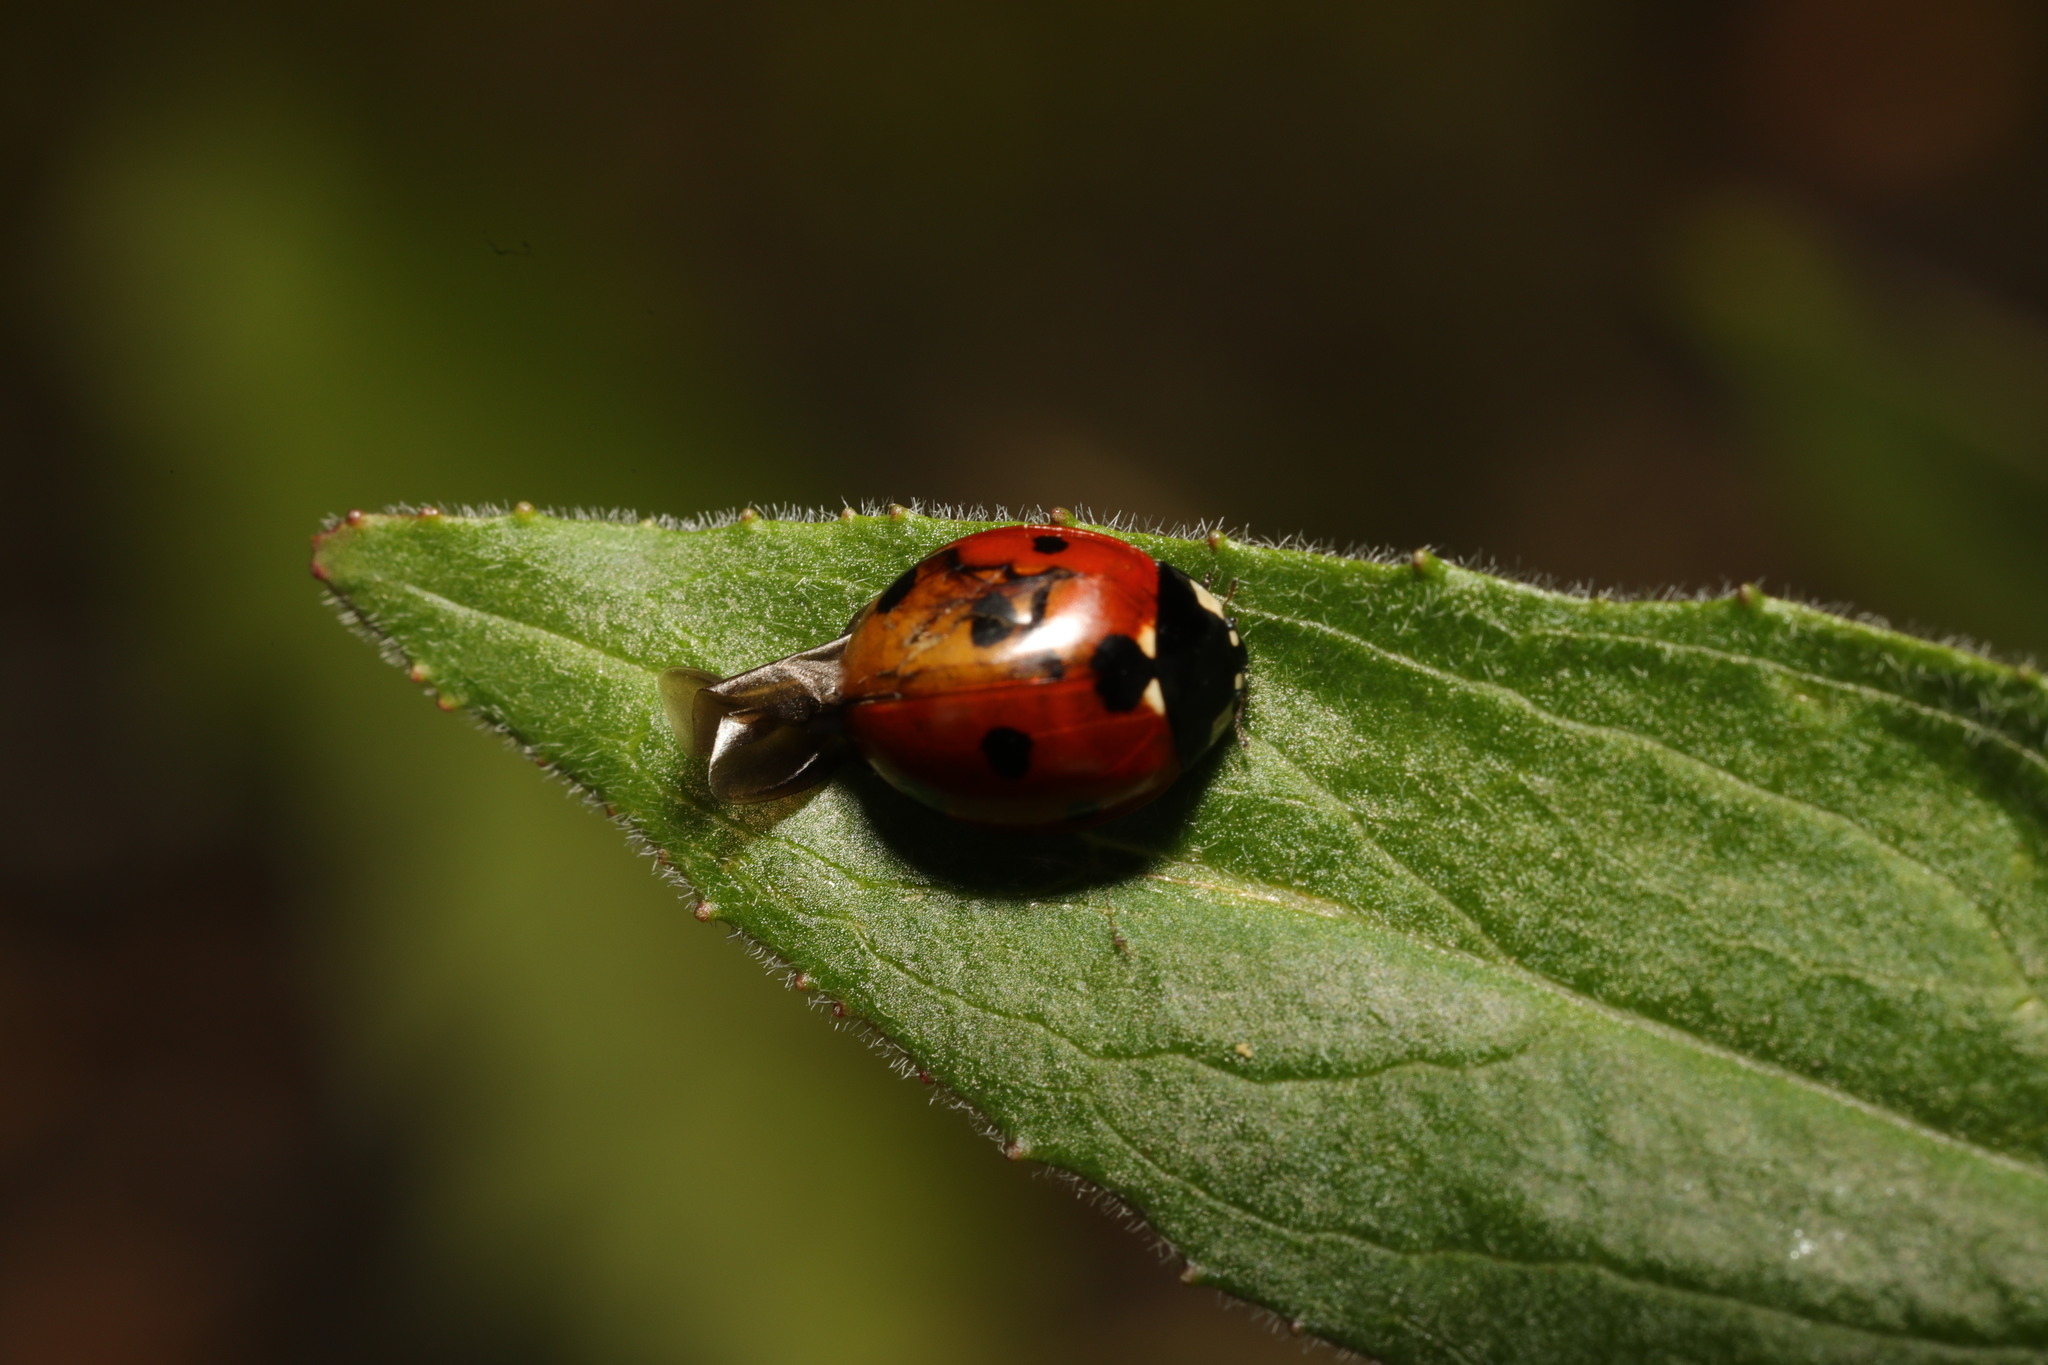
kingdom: Animalia
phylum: Arthropoda
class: Insecta
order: Coleoptera
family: Coccinellidae
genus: Coccinella
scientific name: Coccinella septempunctata
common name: Sevenspotted lady beetle
